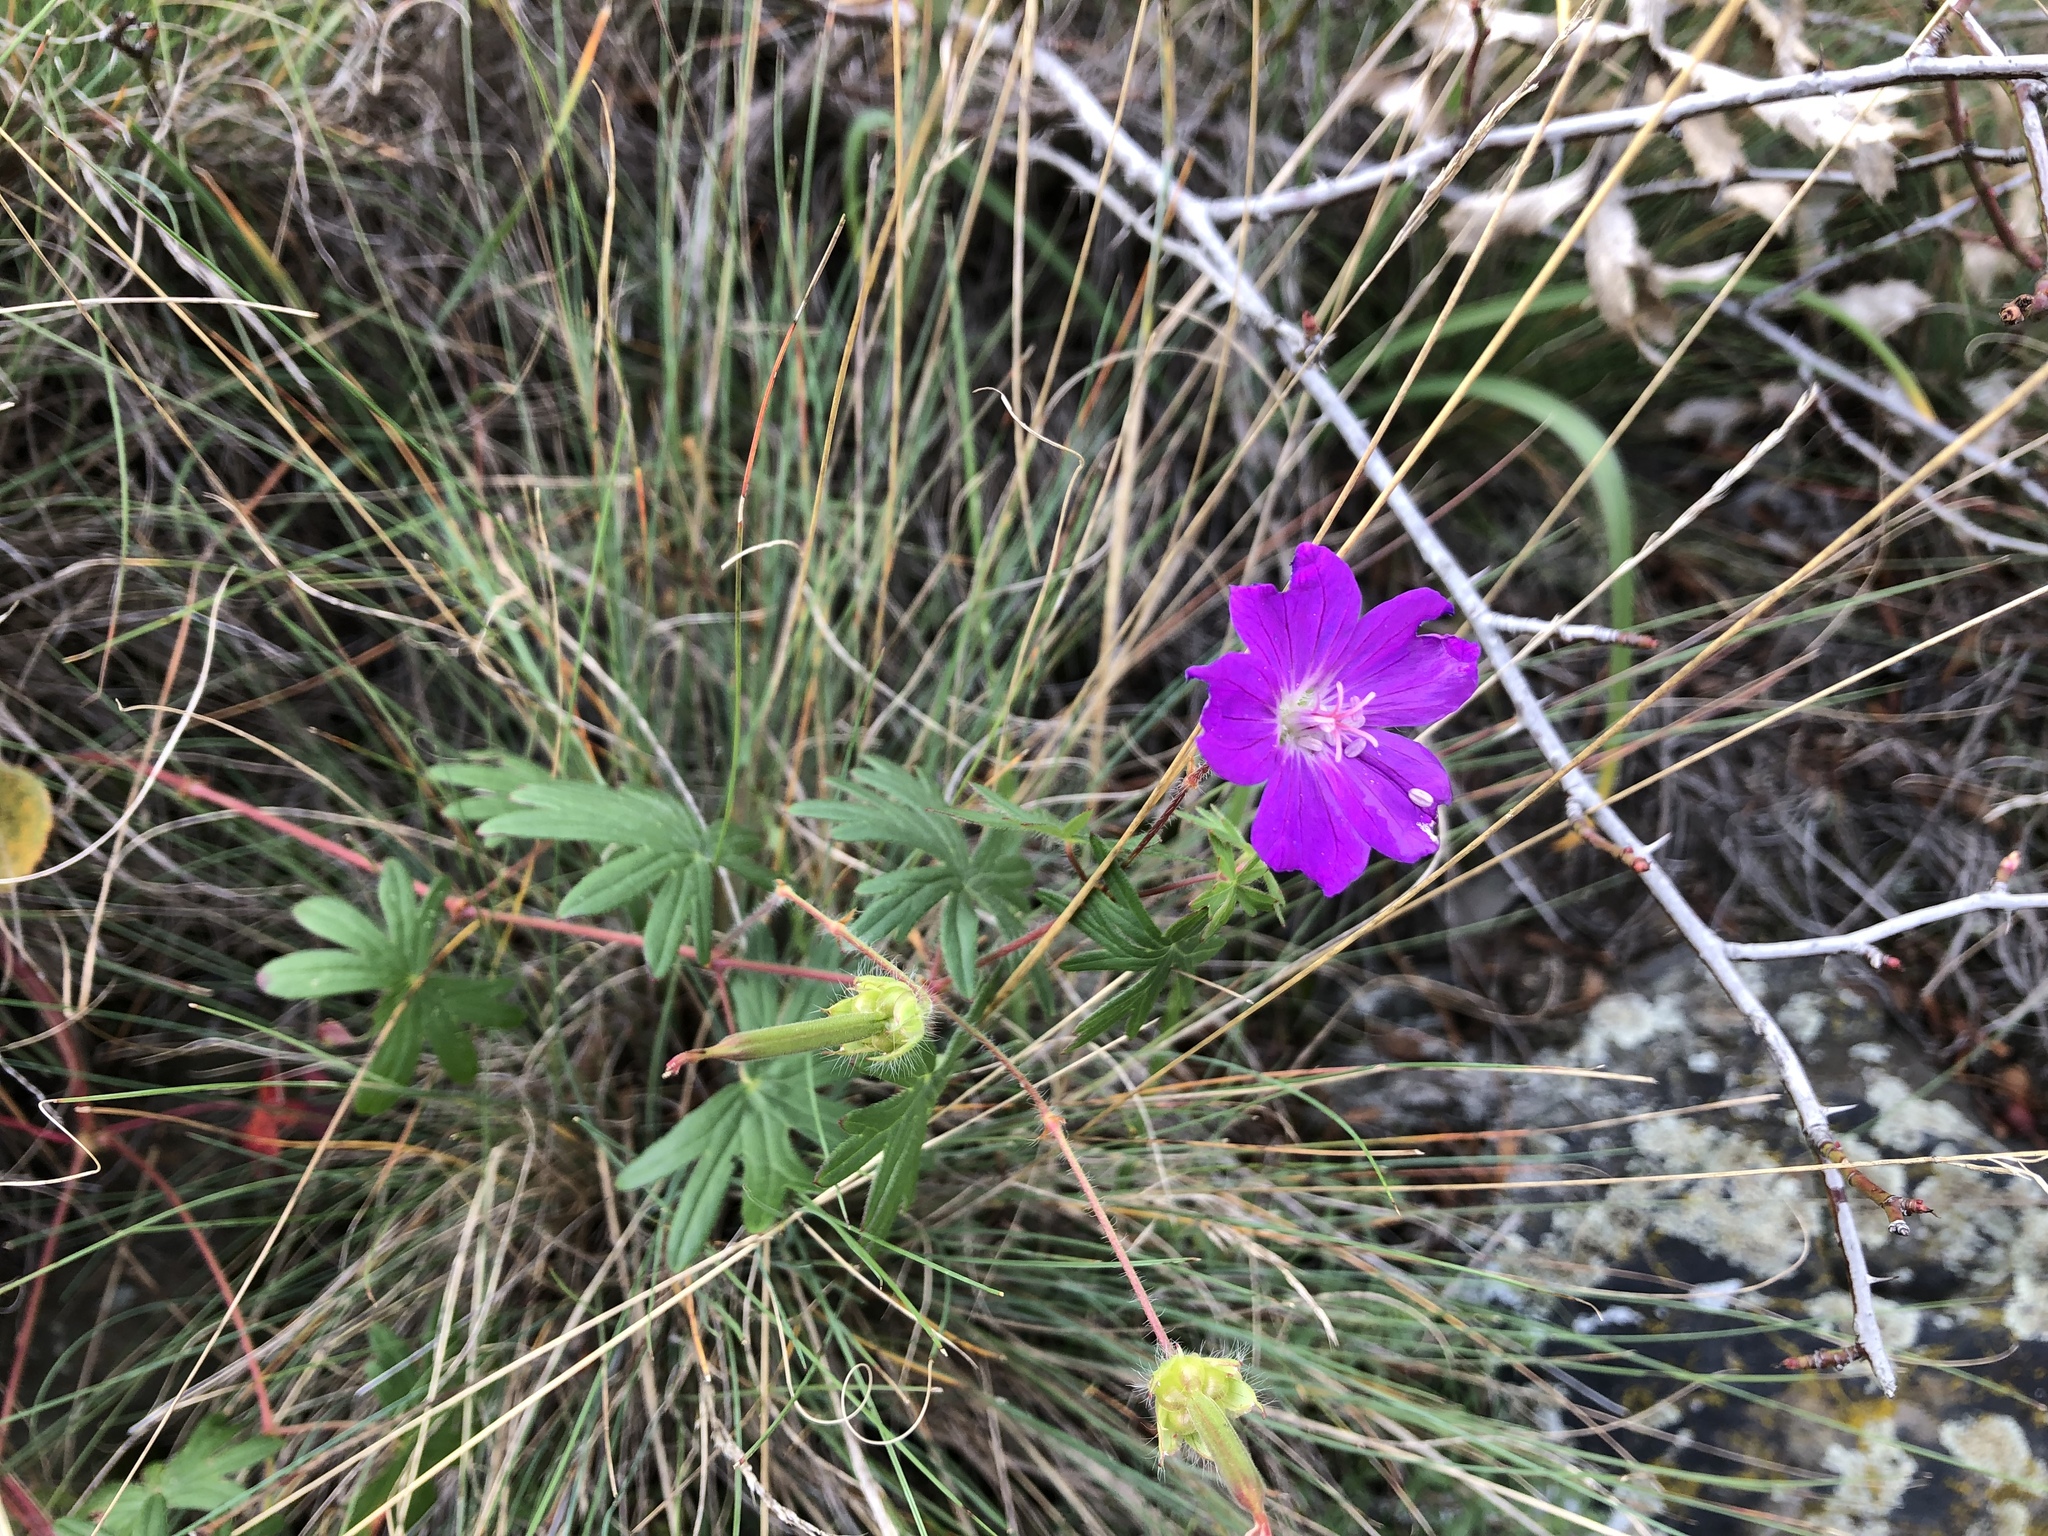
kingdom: Plantae
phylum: Tracheophyta
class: Magnoliopsida
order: Geraniales
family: Geraniaceae
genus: Geranium
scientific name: Geranium sanguineum
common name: Bloody crane's-bill
